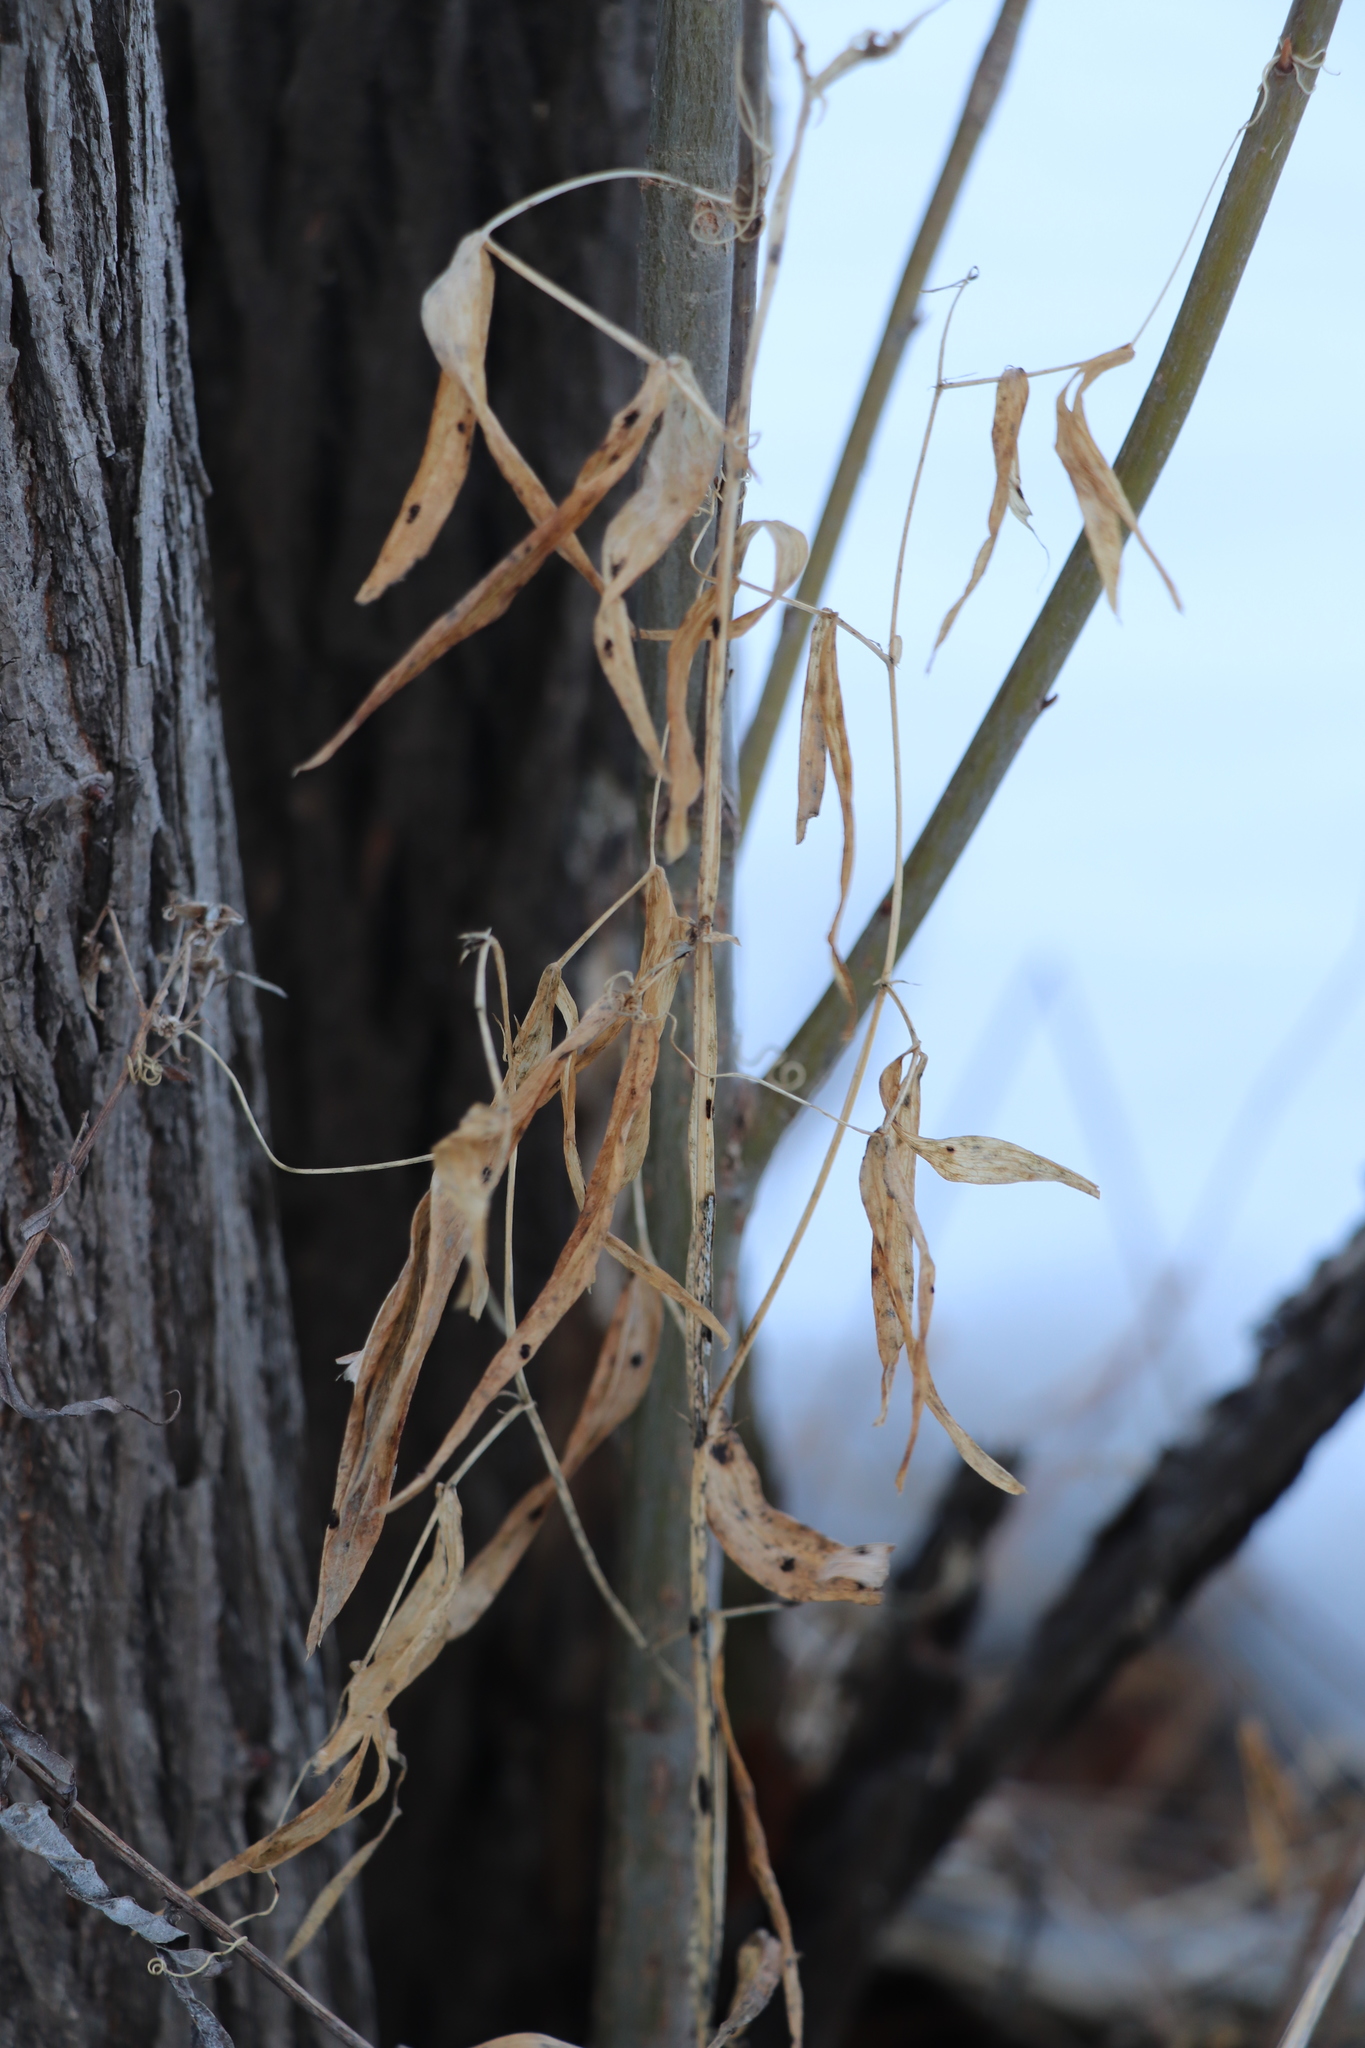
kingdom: Plantae
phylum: Tracheophyta
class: Magnoliopsida
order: Fabales
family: Fabaceae
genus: Lathyrus
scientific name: Lathyrus pratensis
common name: Meadow vetchling
